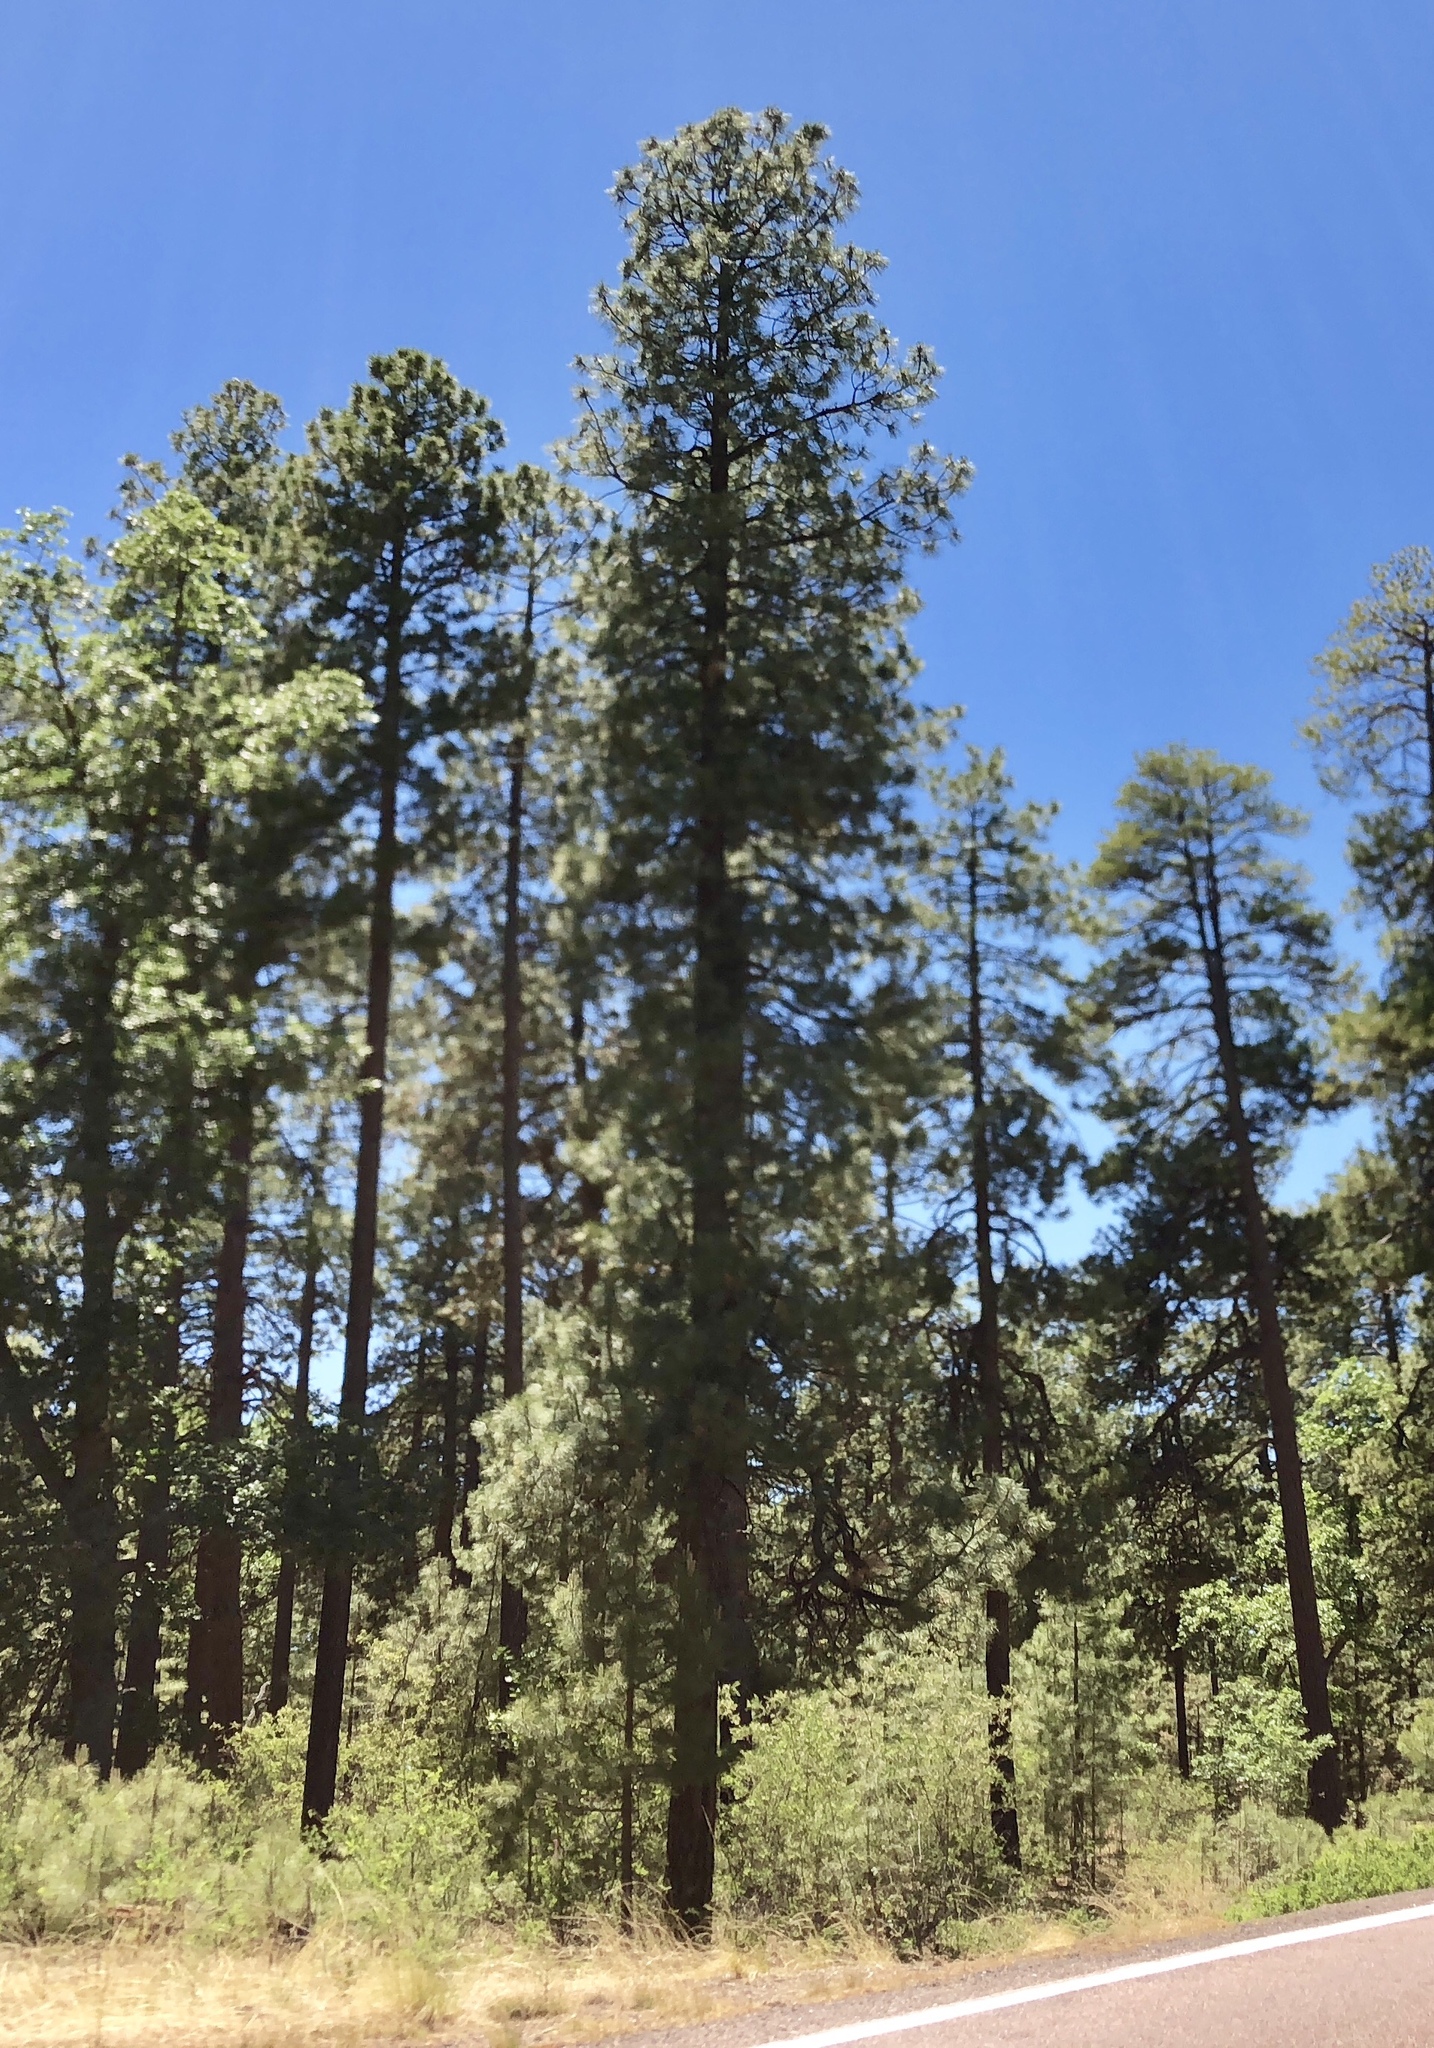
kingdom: Plantae
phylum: Tracheophyta
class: Pinopsida
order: Pinales
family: Pinaceae
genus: Pinus
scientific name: Pinus ponderosa
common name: Western yellow-pine
